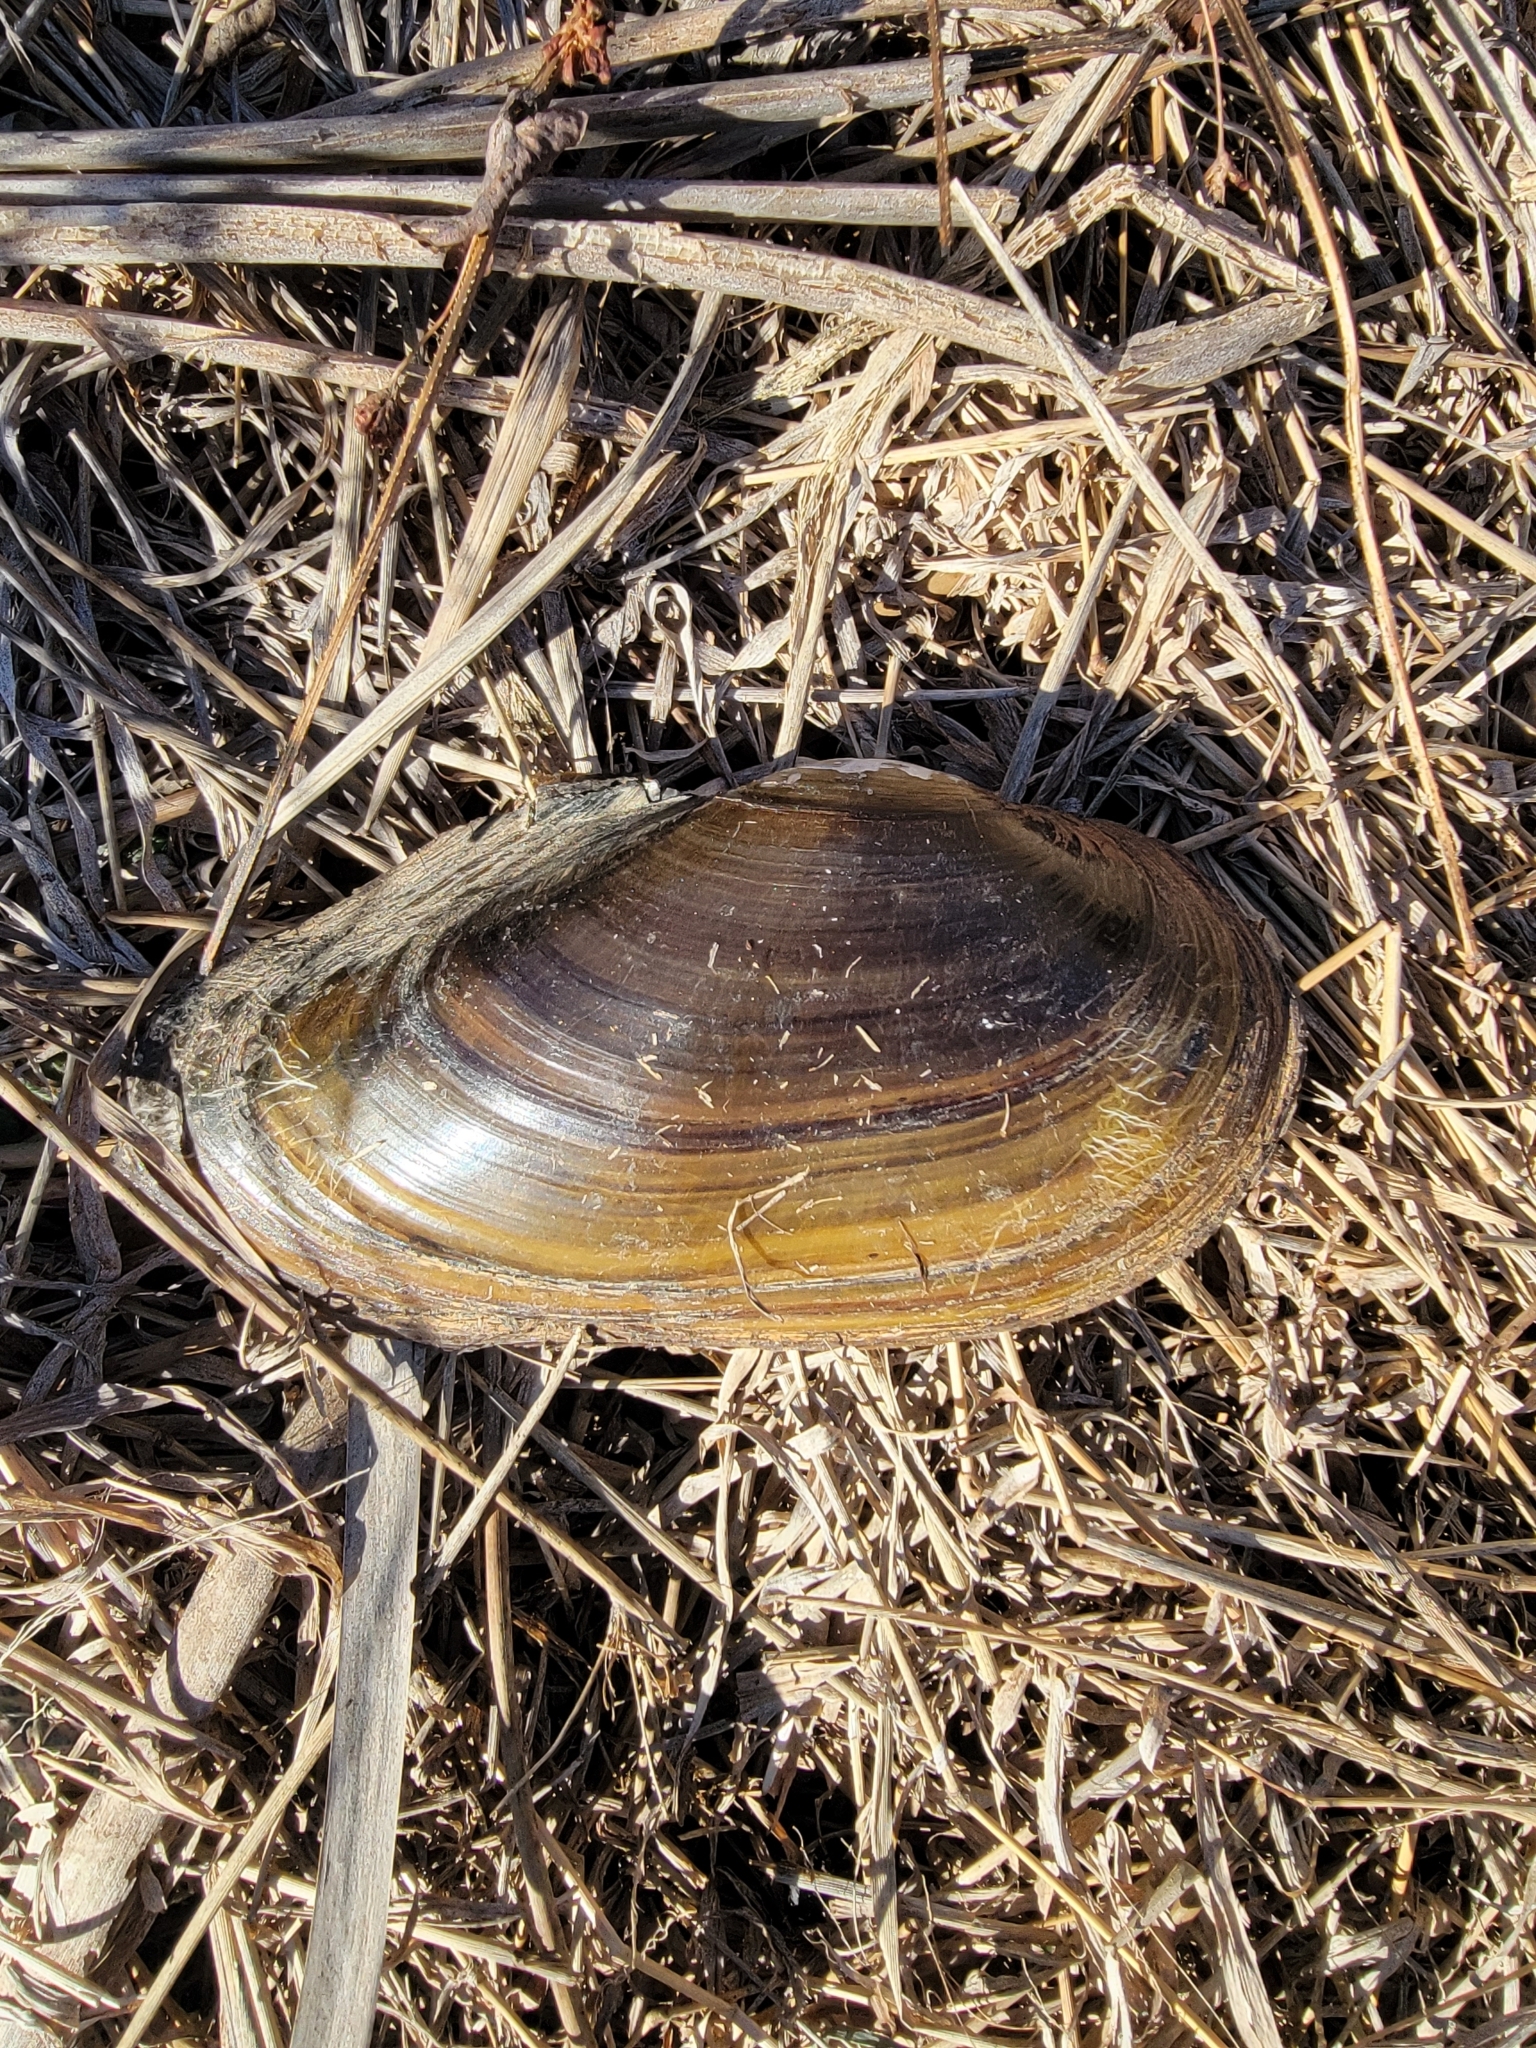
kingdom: Animalia
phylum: Mollusca
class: Bivalvia
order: Unionida
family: Unionidae
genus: Pyganodon
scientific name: Pyganodon grandis
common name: Giant floater
